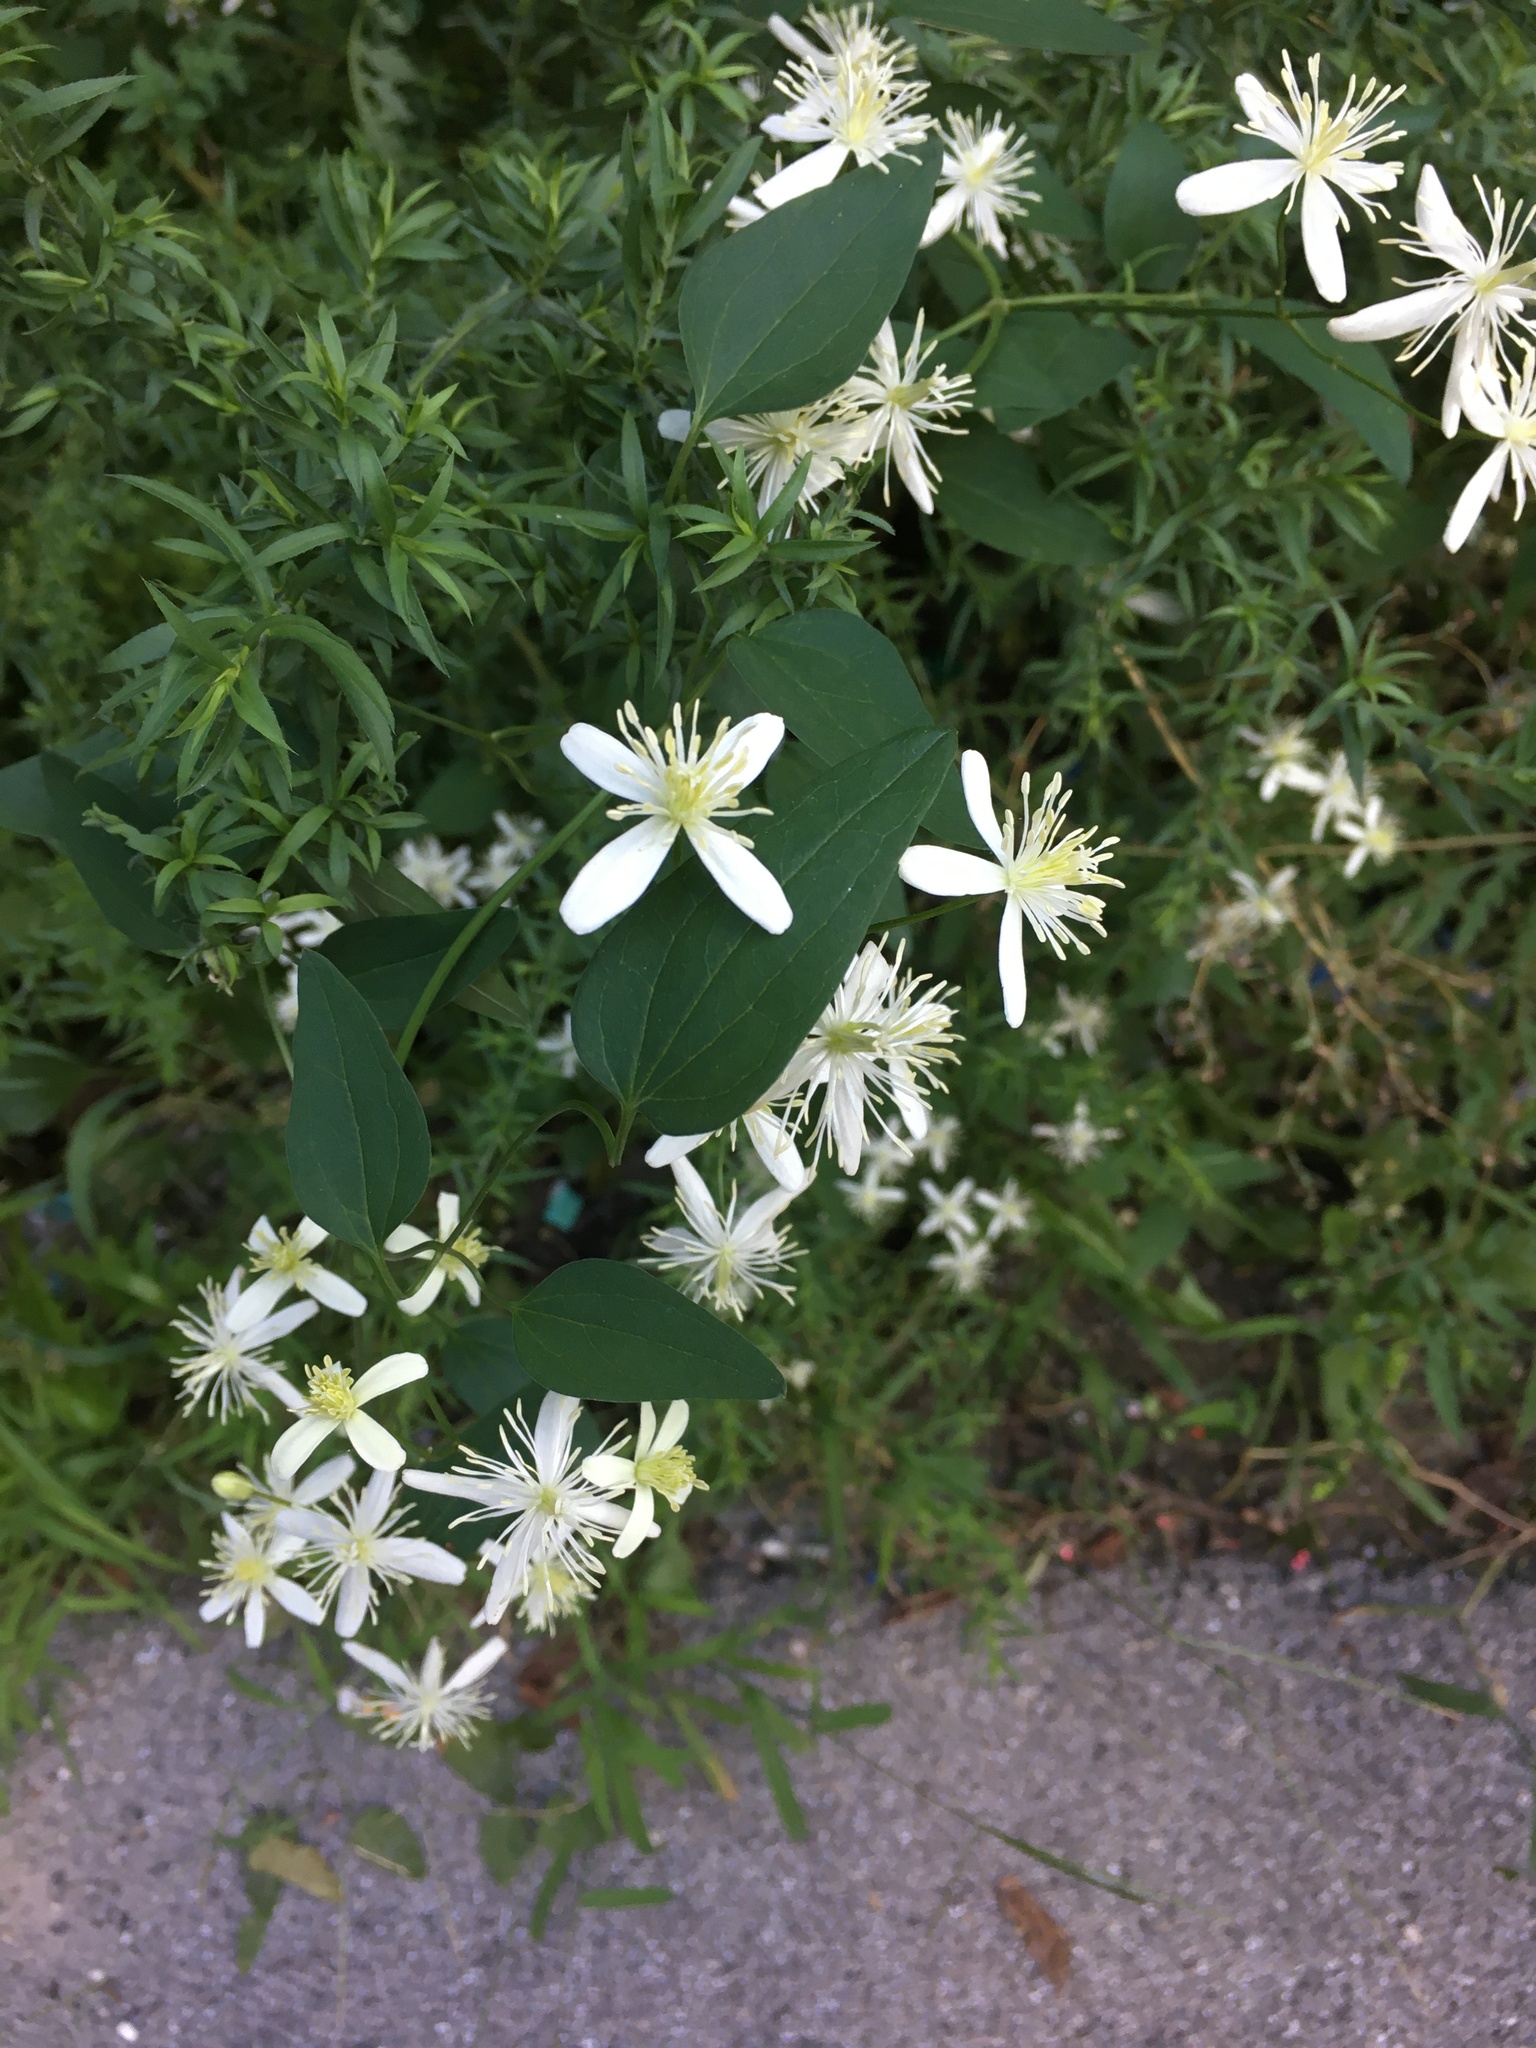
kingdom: Plantae
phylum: Tracheophyta
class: Magnoliopsida
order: Ranunculales
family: Ranunculaceae
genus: Clematis
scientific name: Clematis terniflora
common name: Sweet autumn clematis
